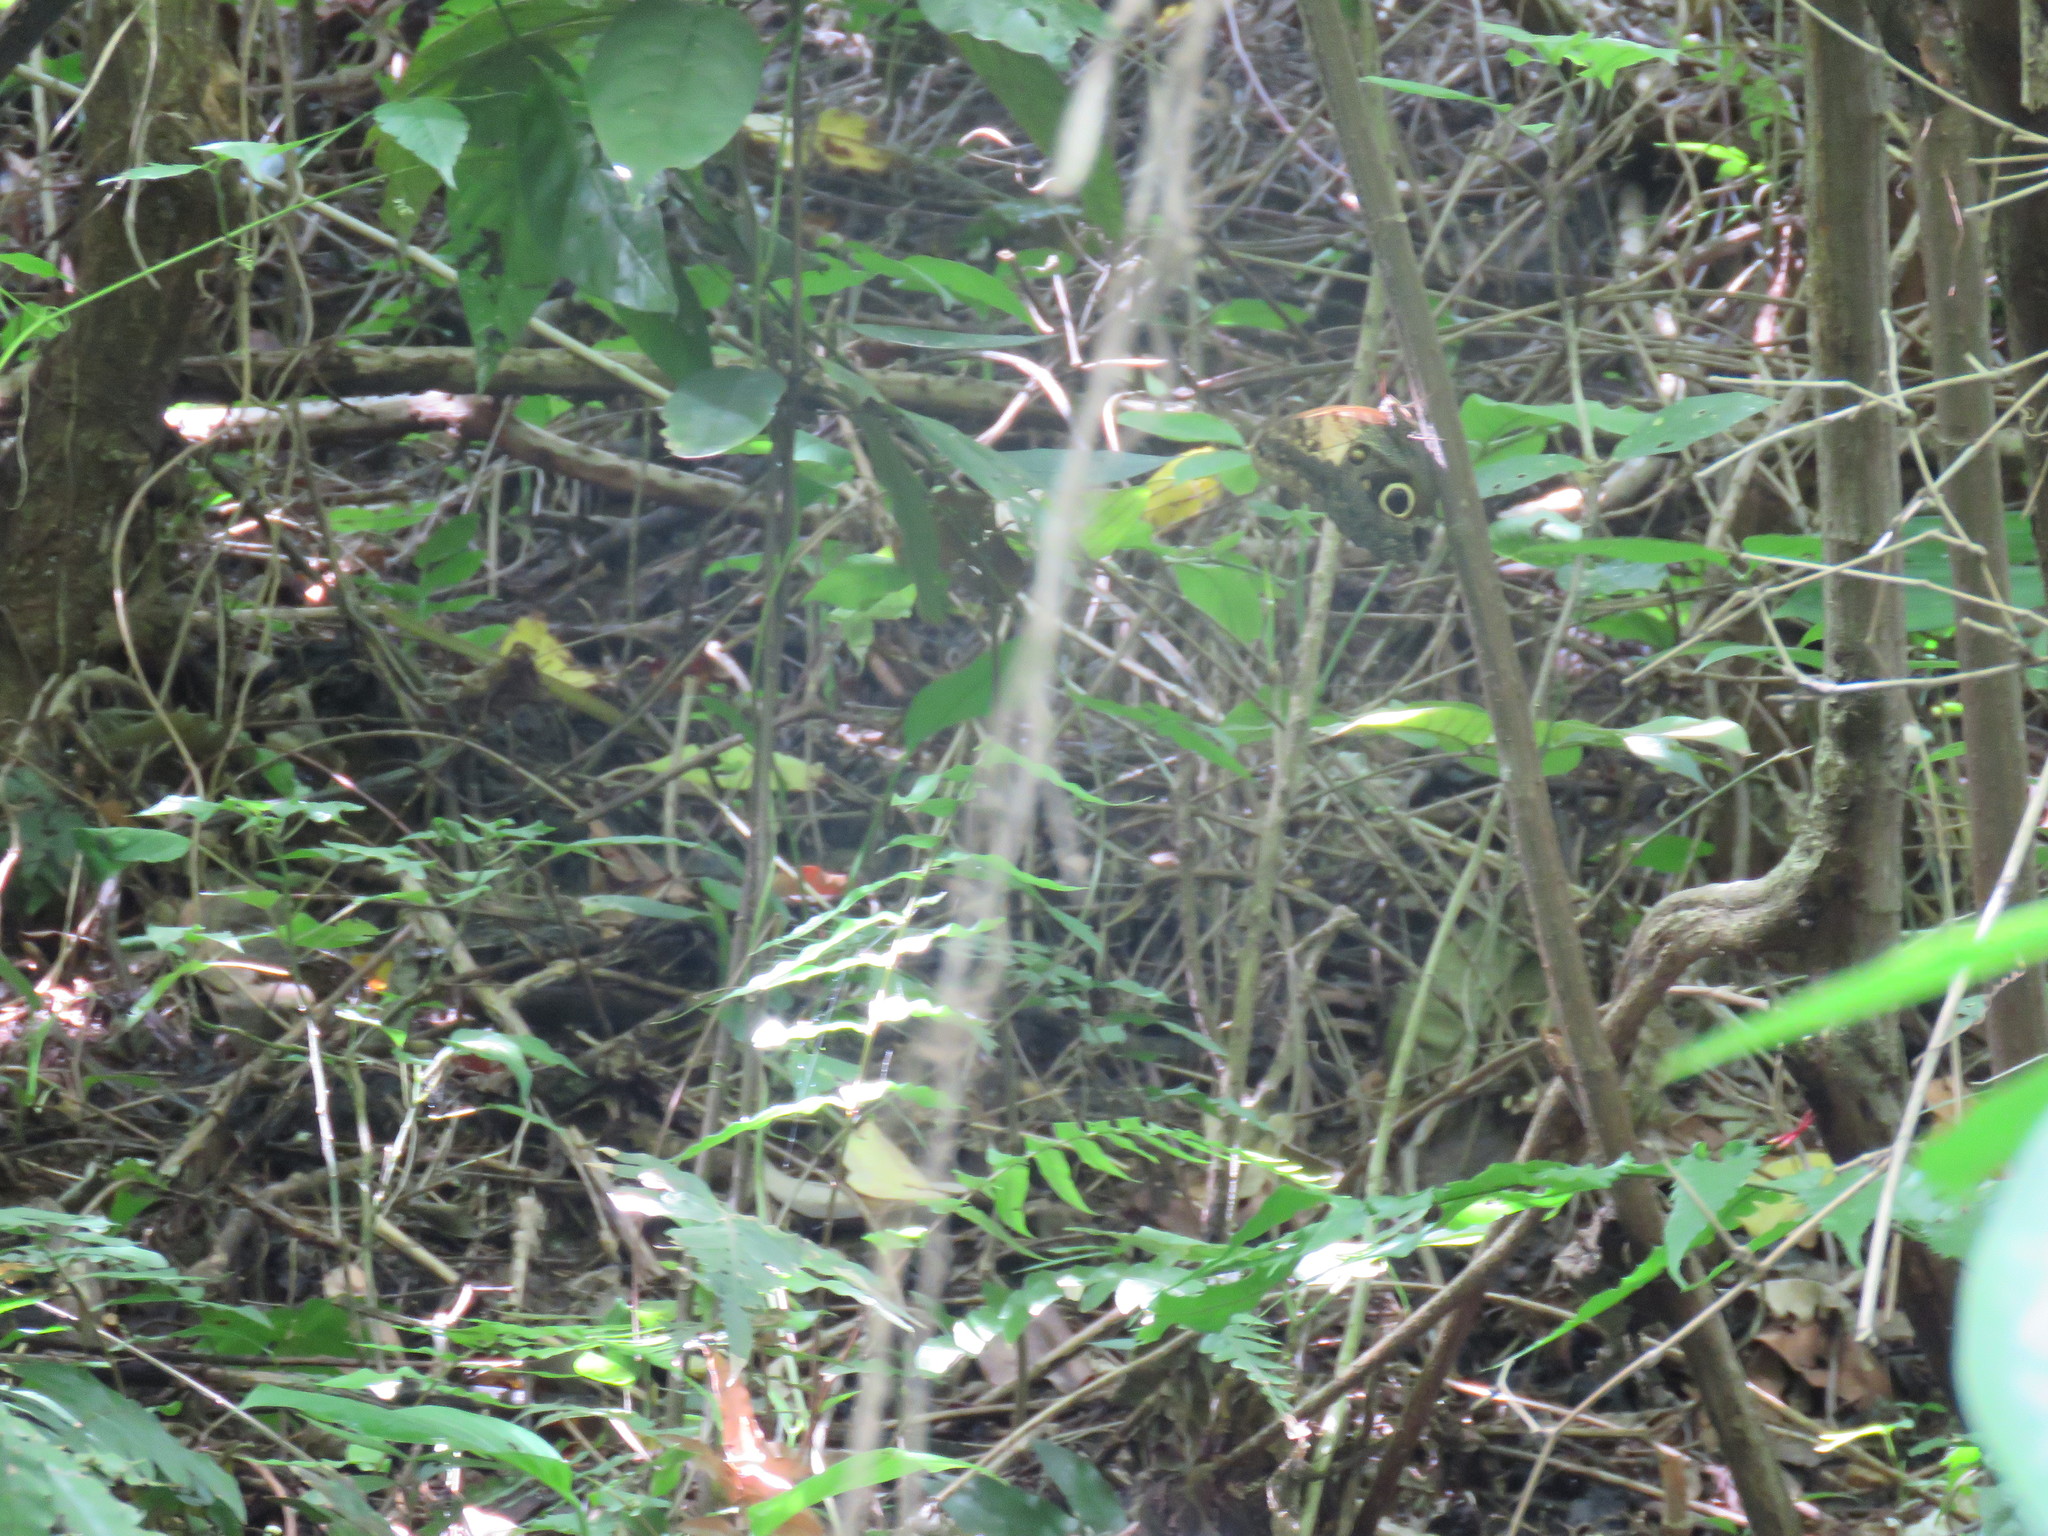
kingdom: Animalia
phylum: Arthropoda
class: Insecta
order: Lepidoptera
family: Nymphalidae
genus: Caligo
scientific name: Caligo telamonius
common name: Pale owl-butterfly
